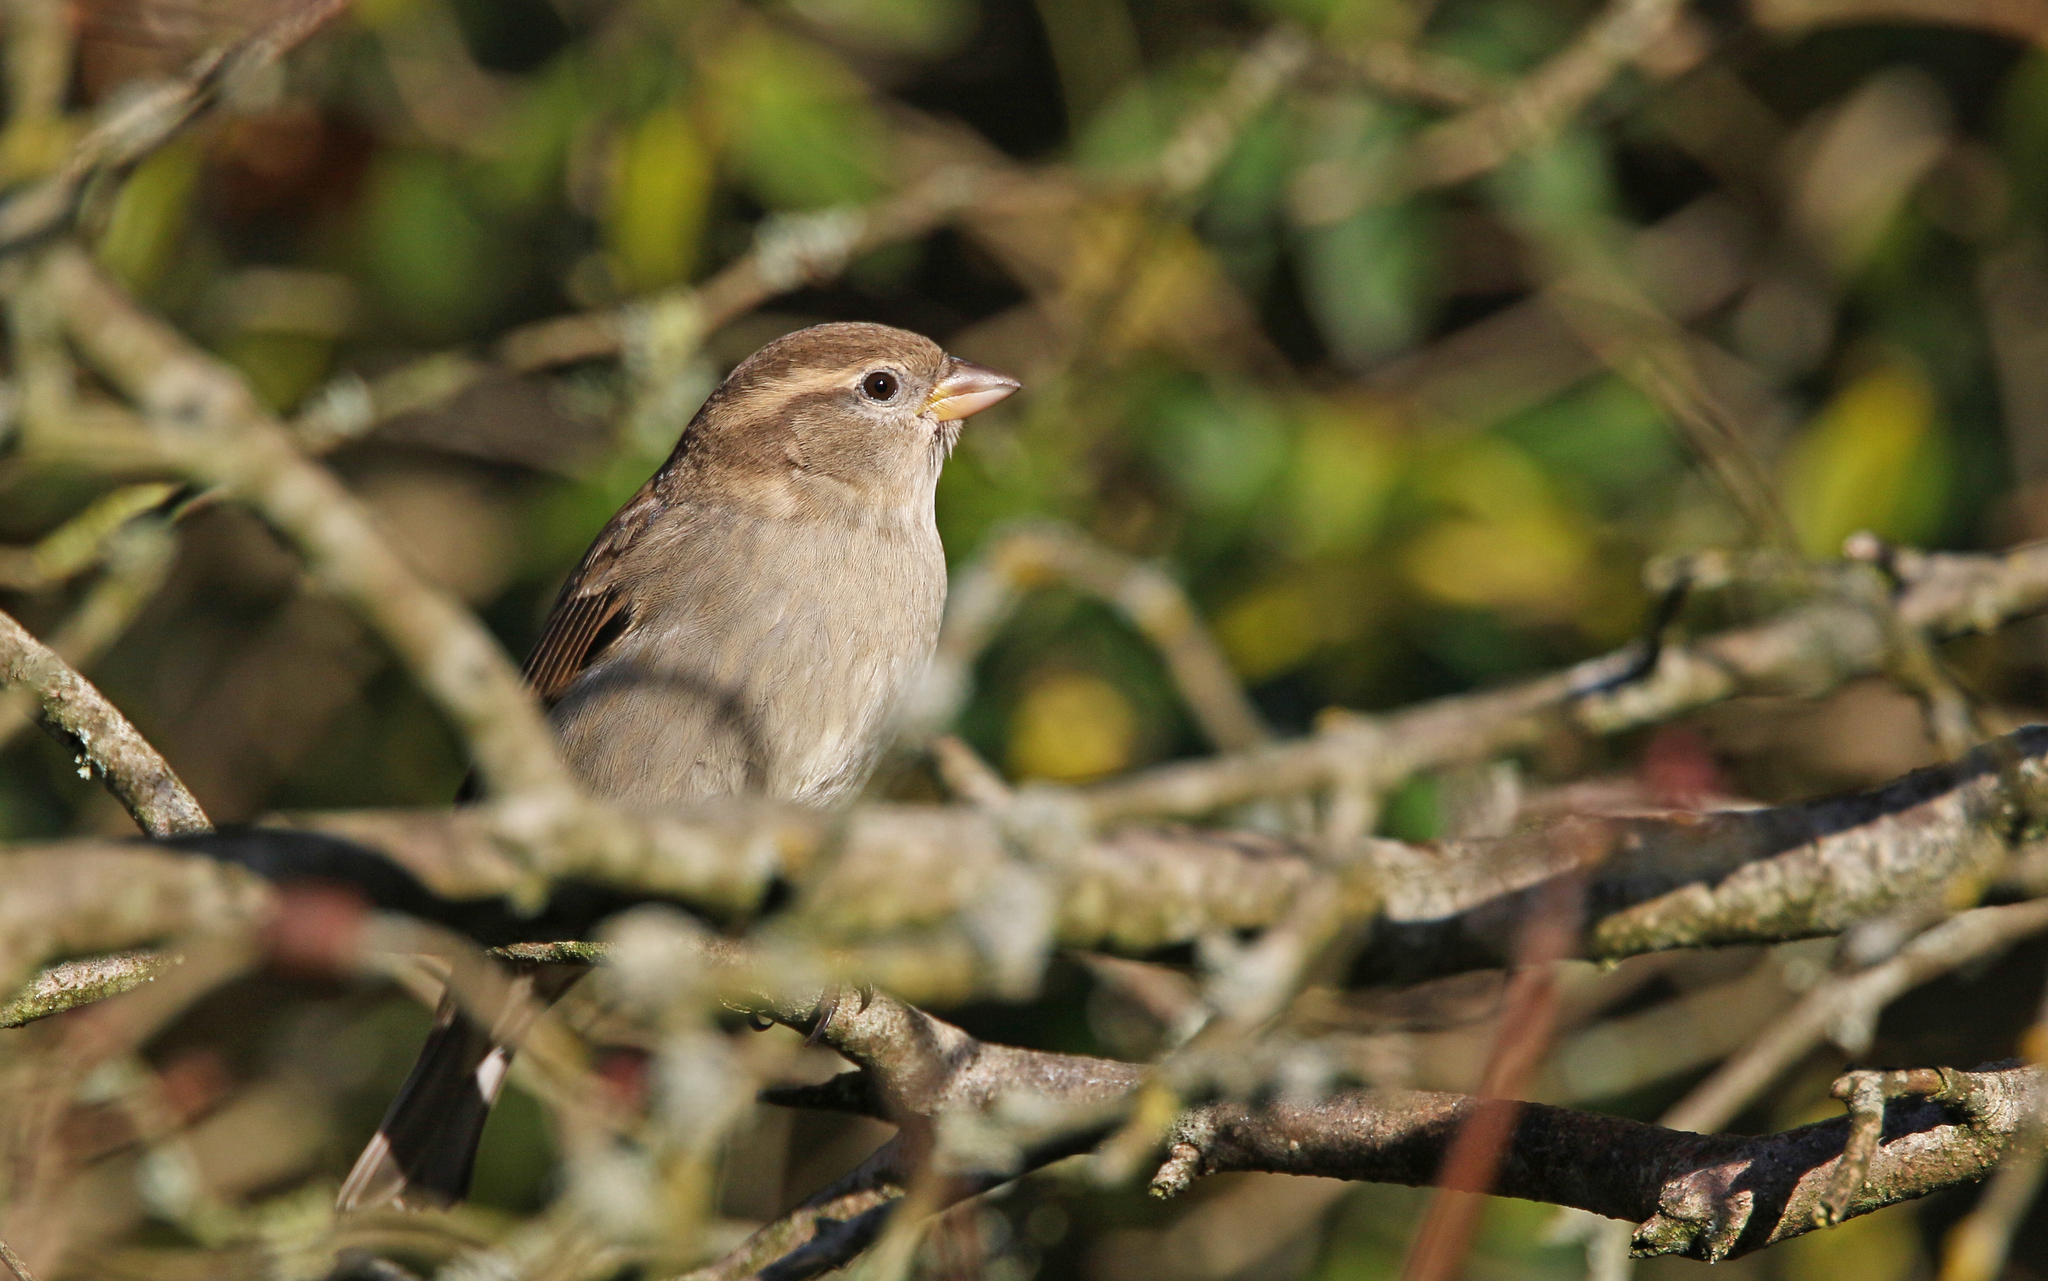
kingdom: Animalia
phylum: Chordata
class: Aves
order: Passeriformes
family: Passeridae
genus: Passer
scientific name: Passer domesticus
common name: House sparrow
